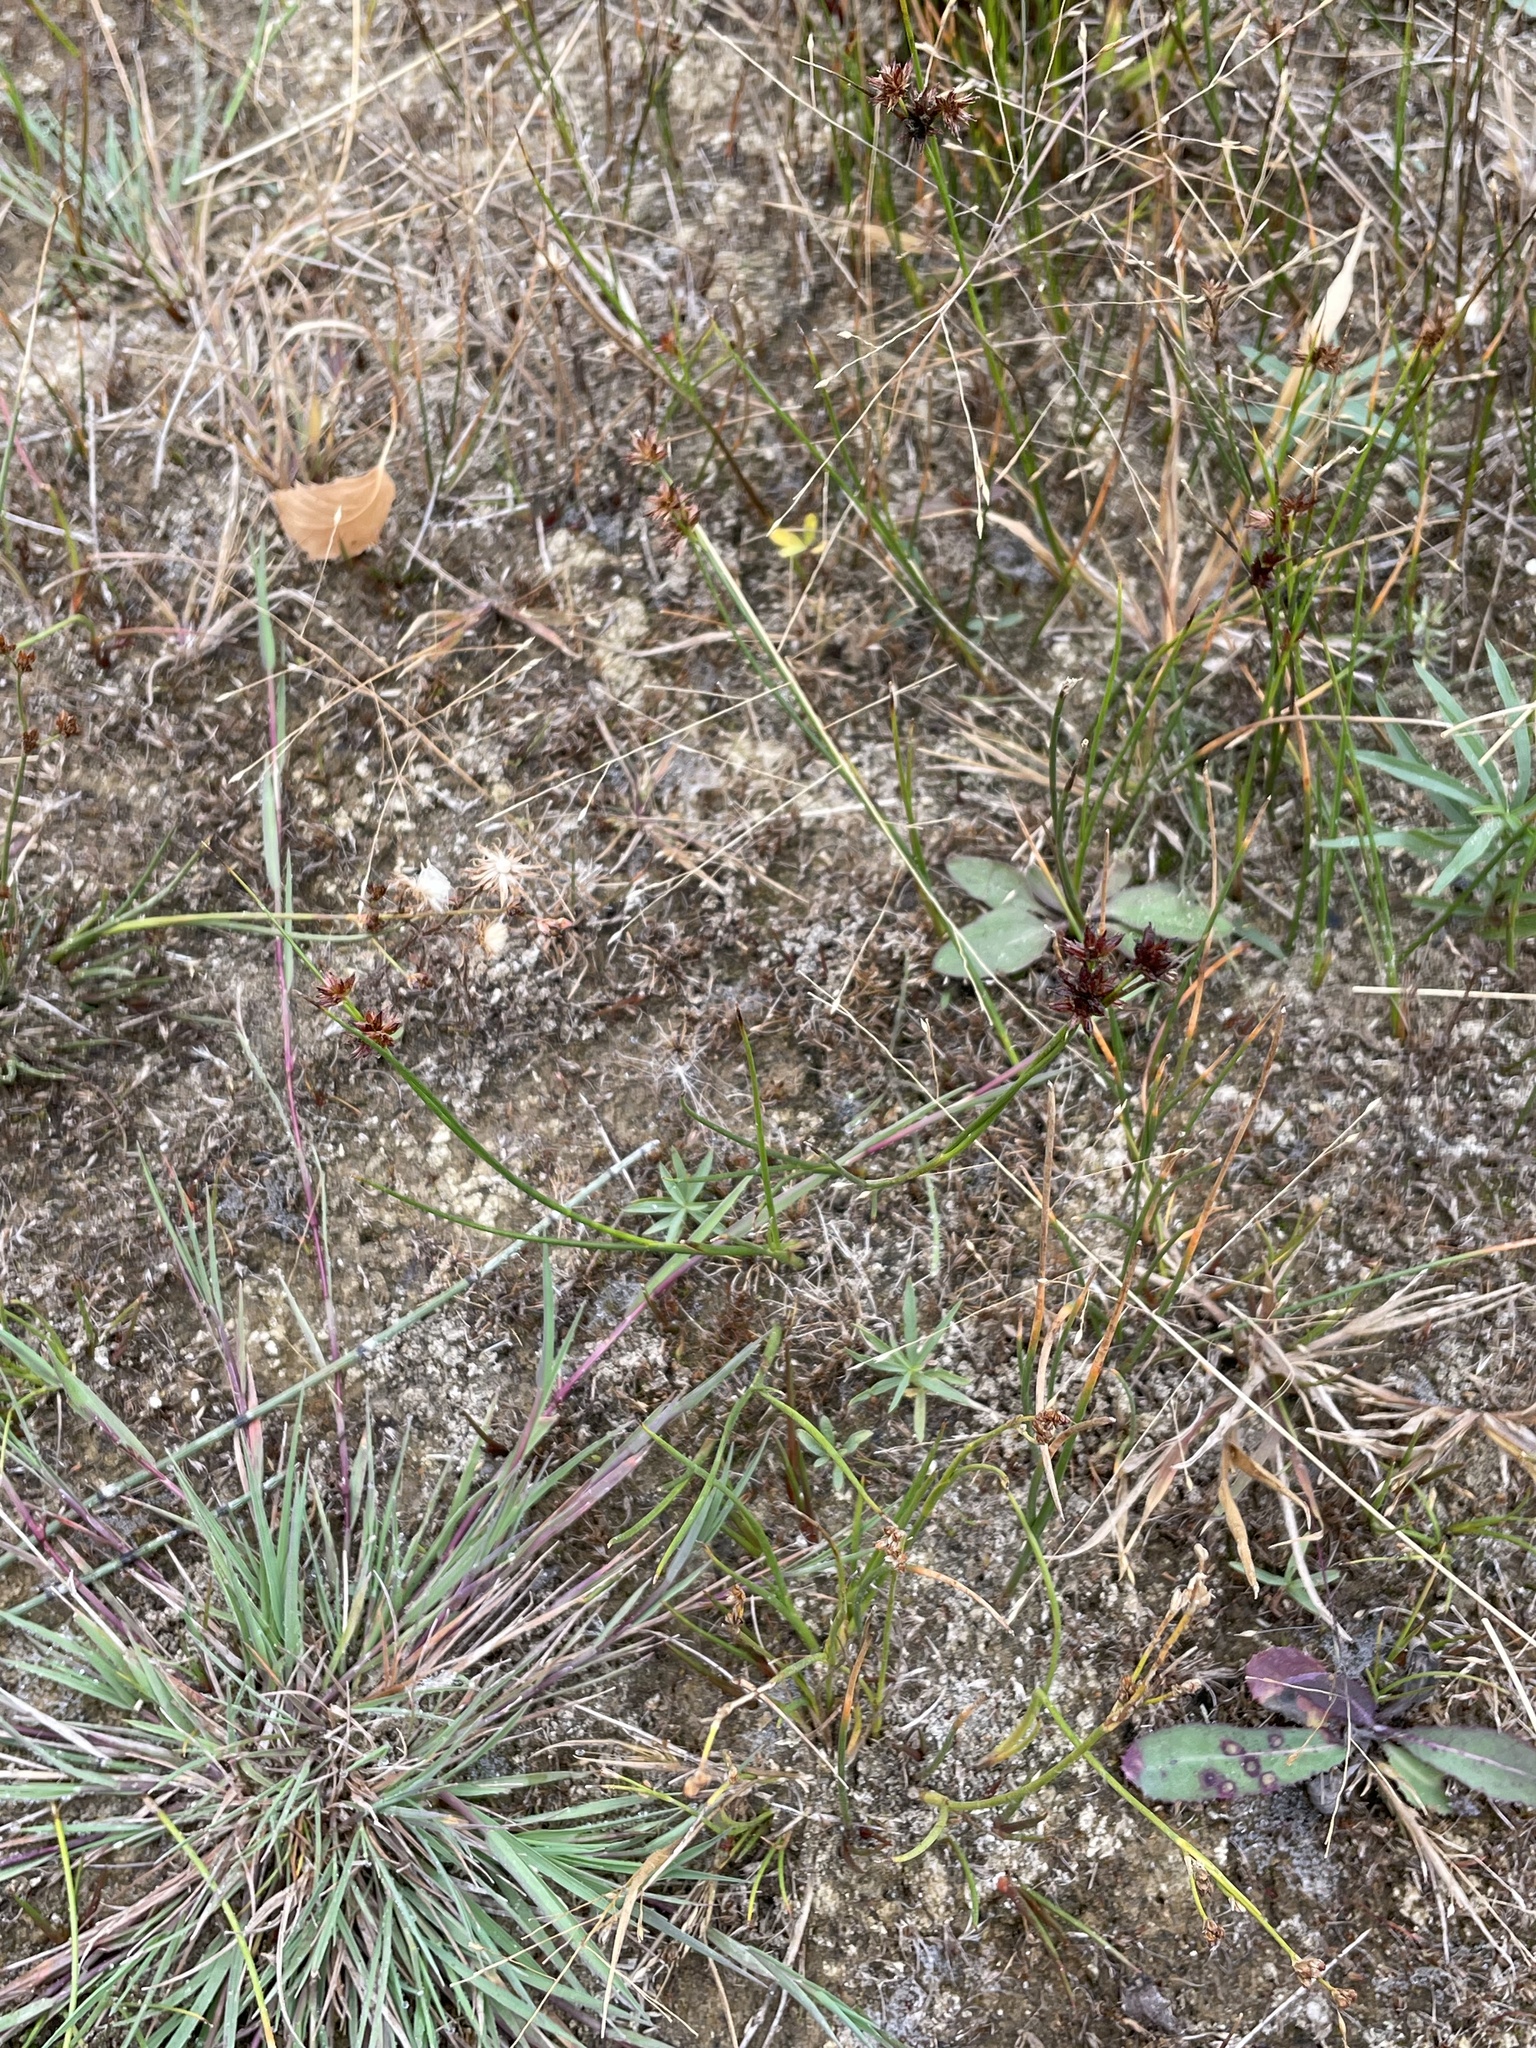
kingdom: Plantae
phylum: Tracheophyta
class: Liliopsida
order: Poales
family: Juncaceae
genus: Juncus
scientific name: Juncus nodosus
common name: Knotted rush
